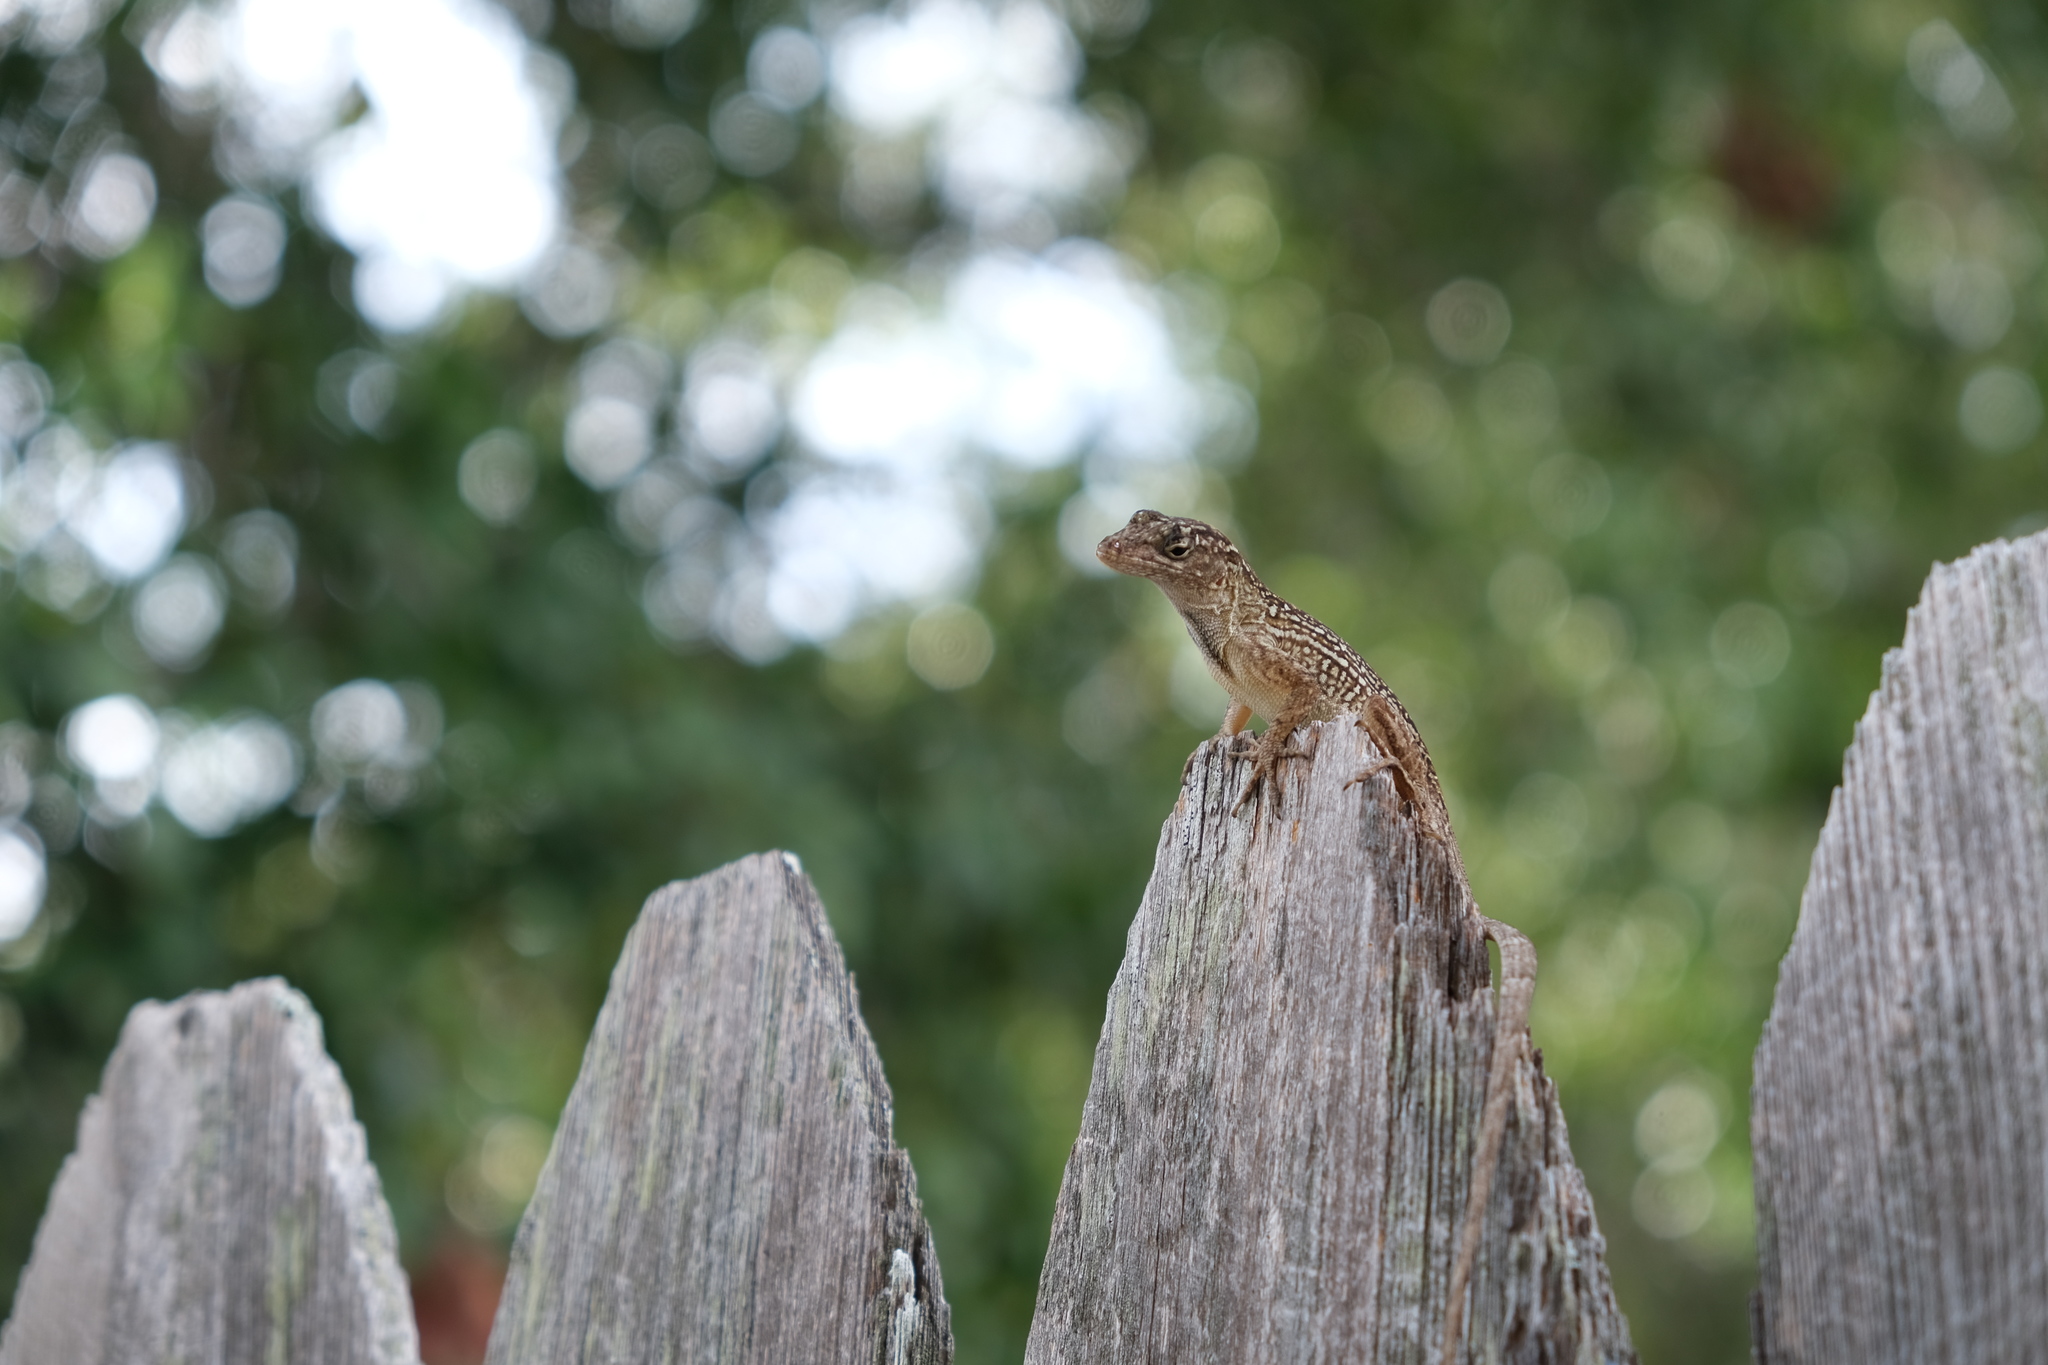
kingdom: Animalia
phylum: Chordata
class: Squamata
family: Dactyloidae
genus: Anolis
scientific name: Anolis sagrei
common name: Brown anole
